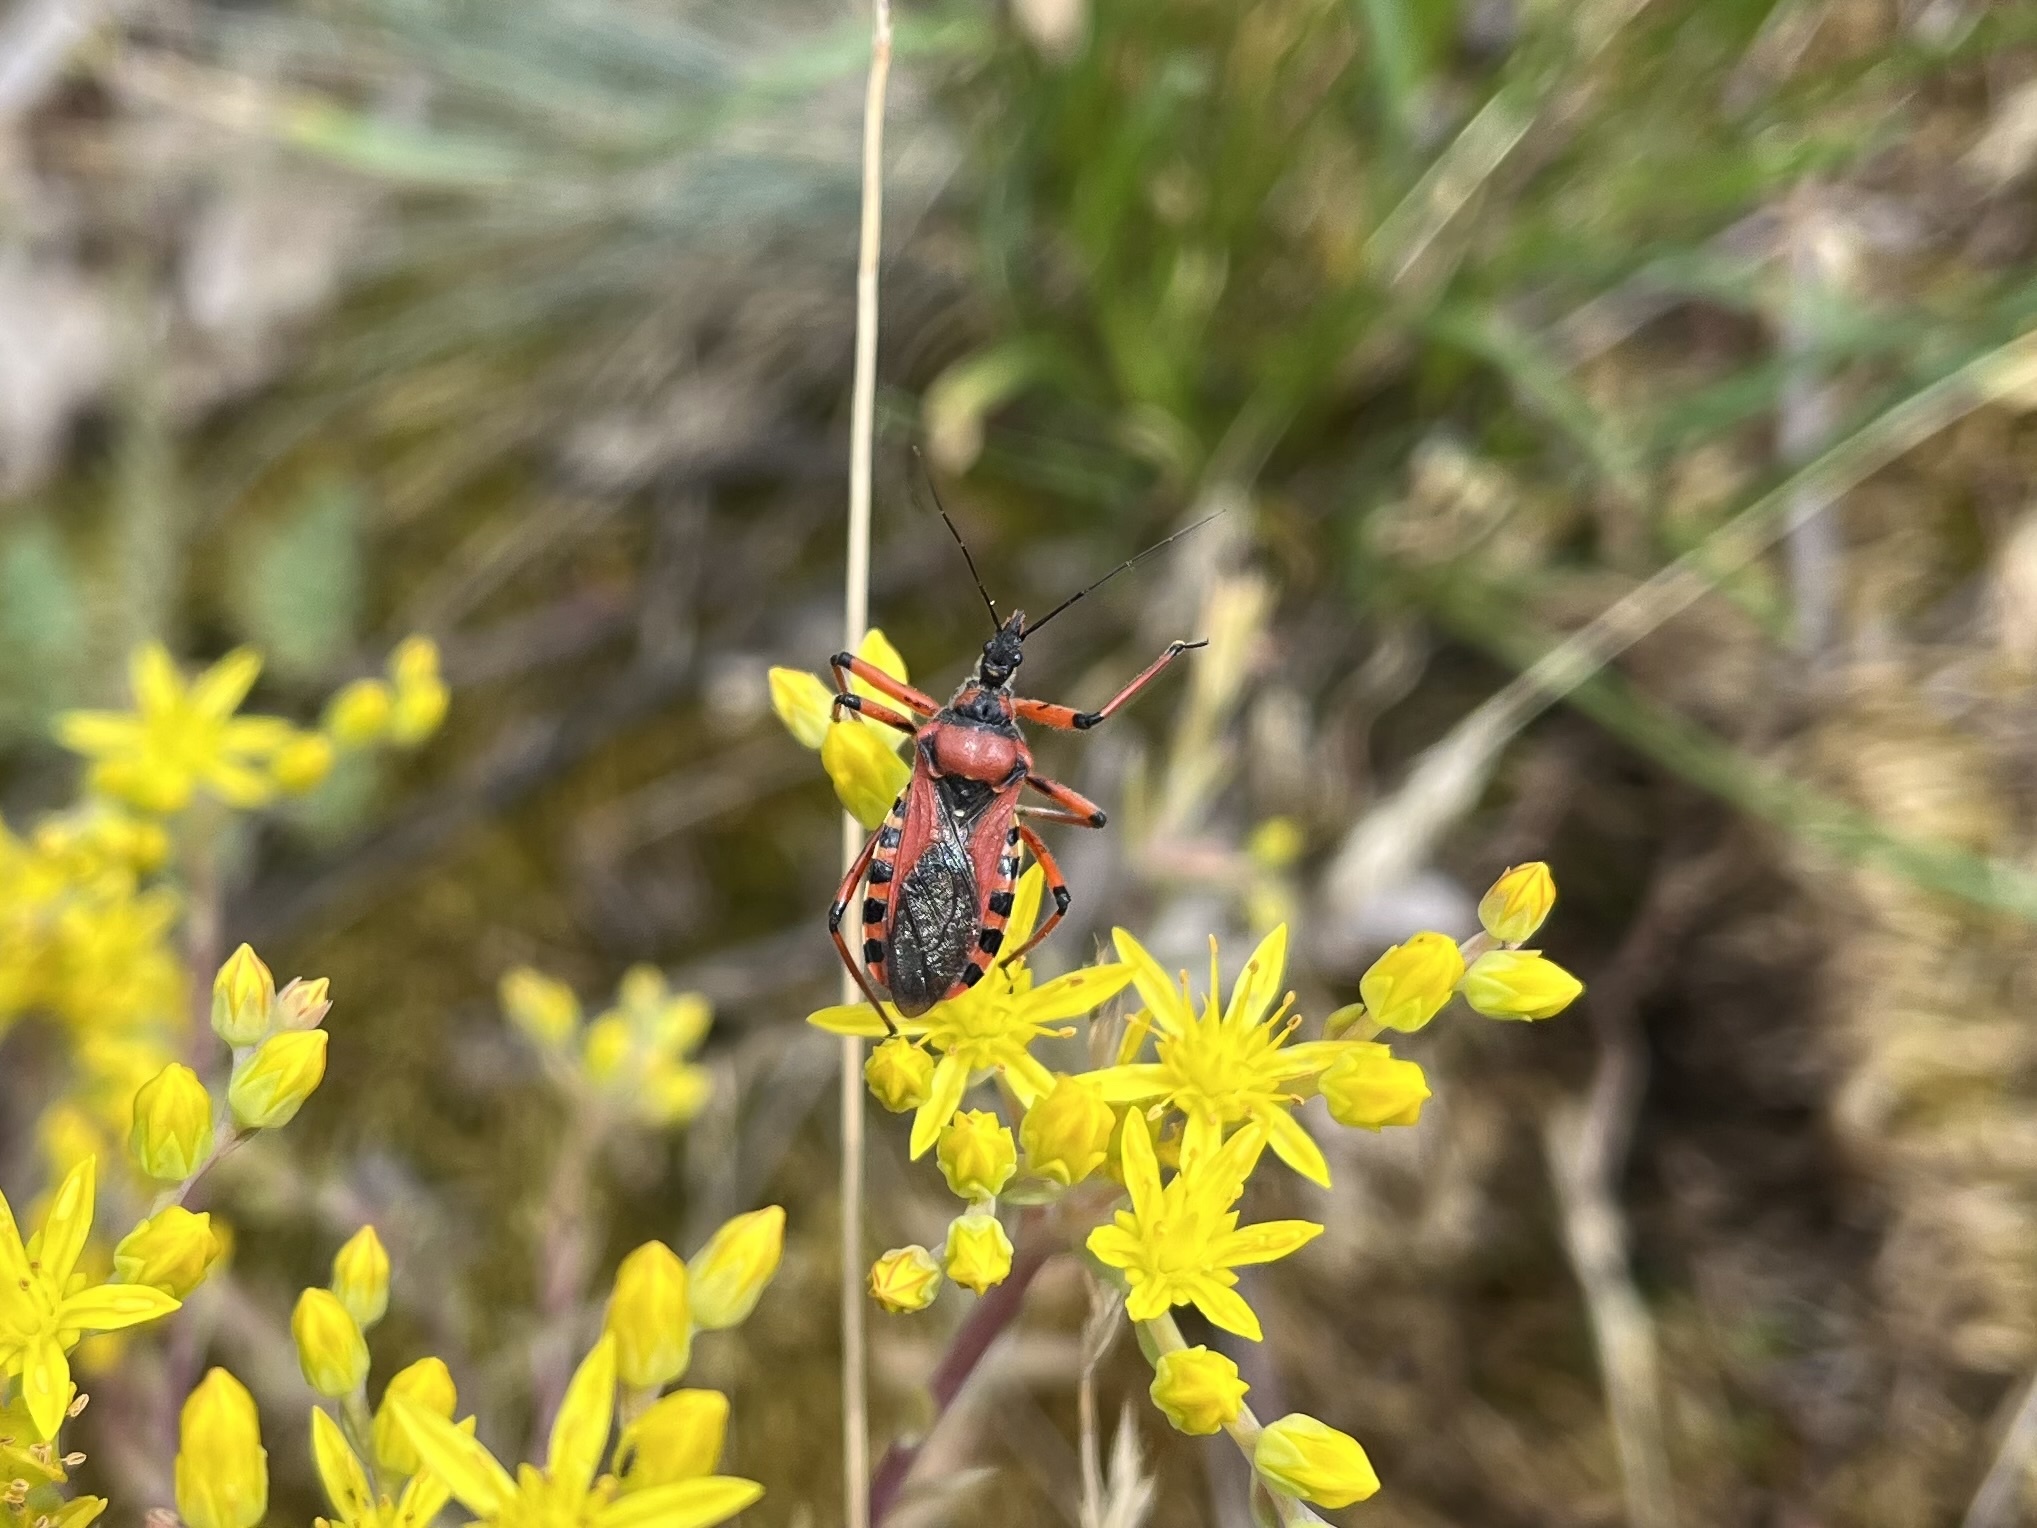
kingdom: Animalia
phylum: Arthropoda
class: Insecta
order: Hemiptera
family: Reduviidae
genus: Rhynocoris
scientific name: Rhynocoris iracundus
